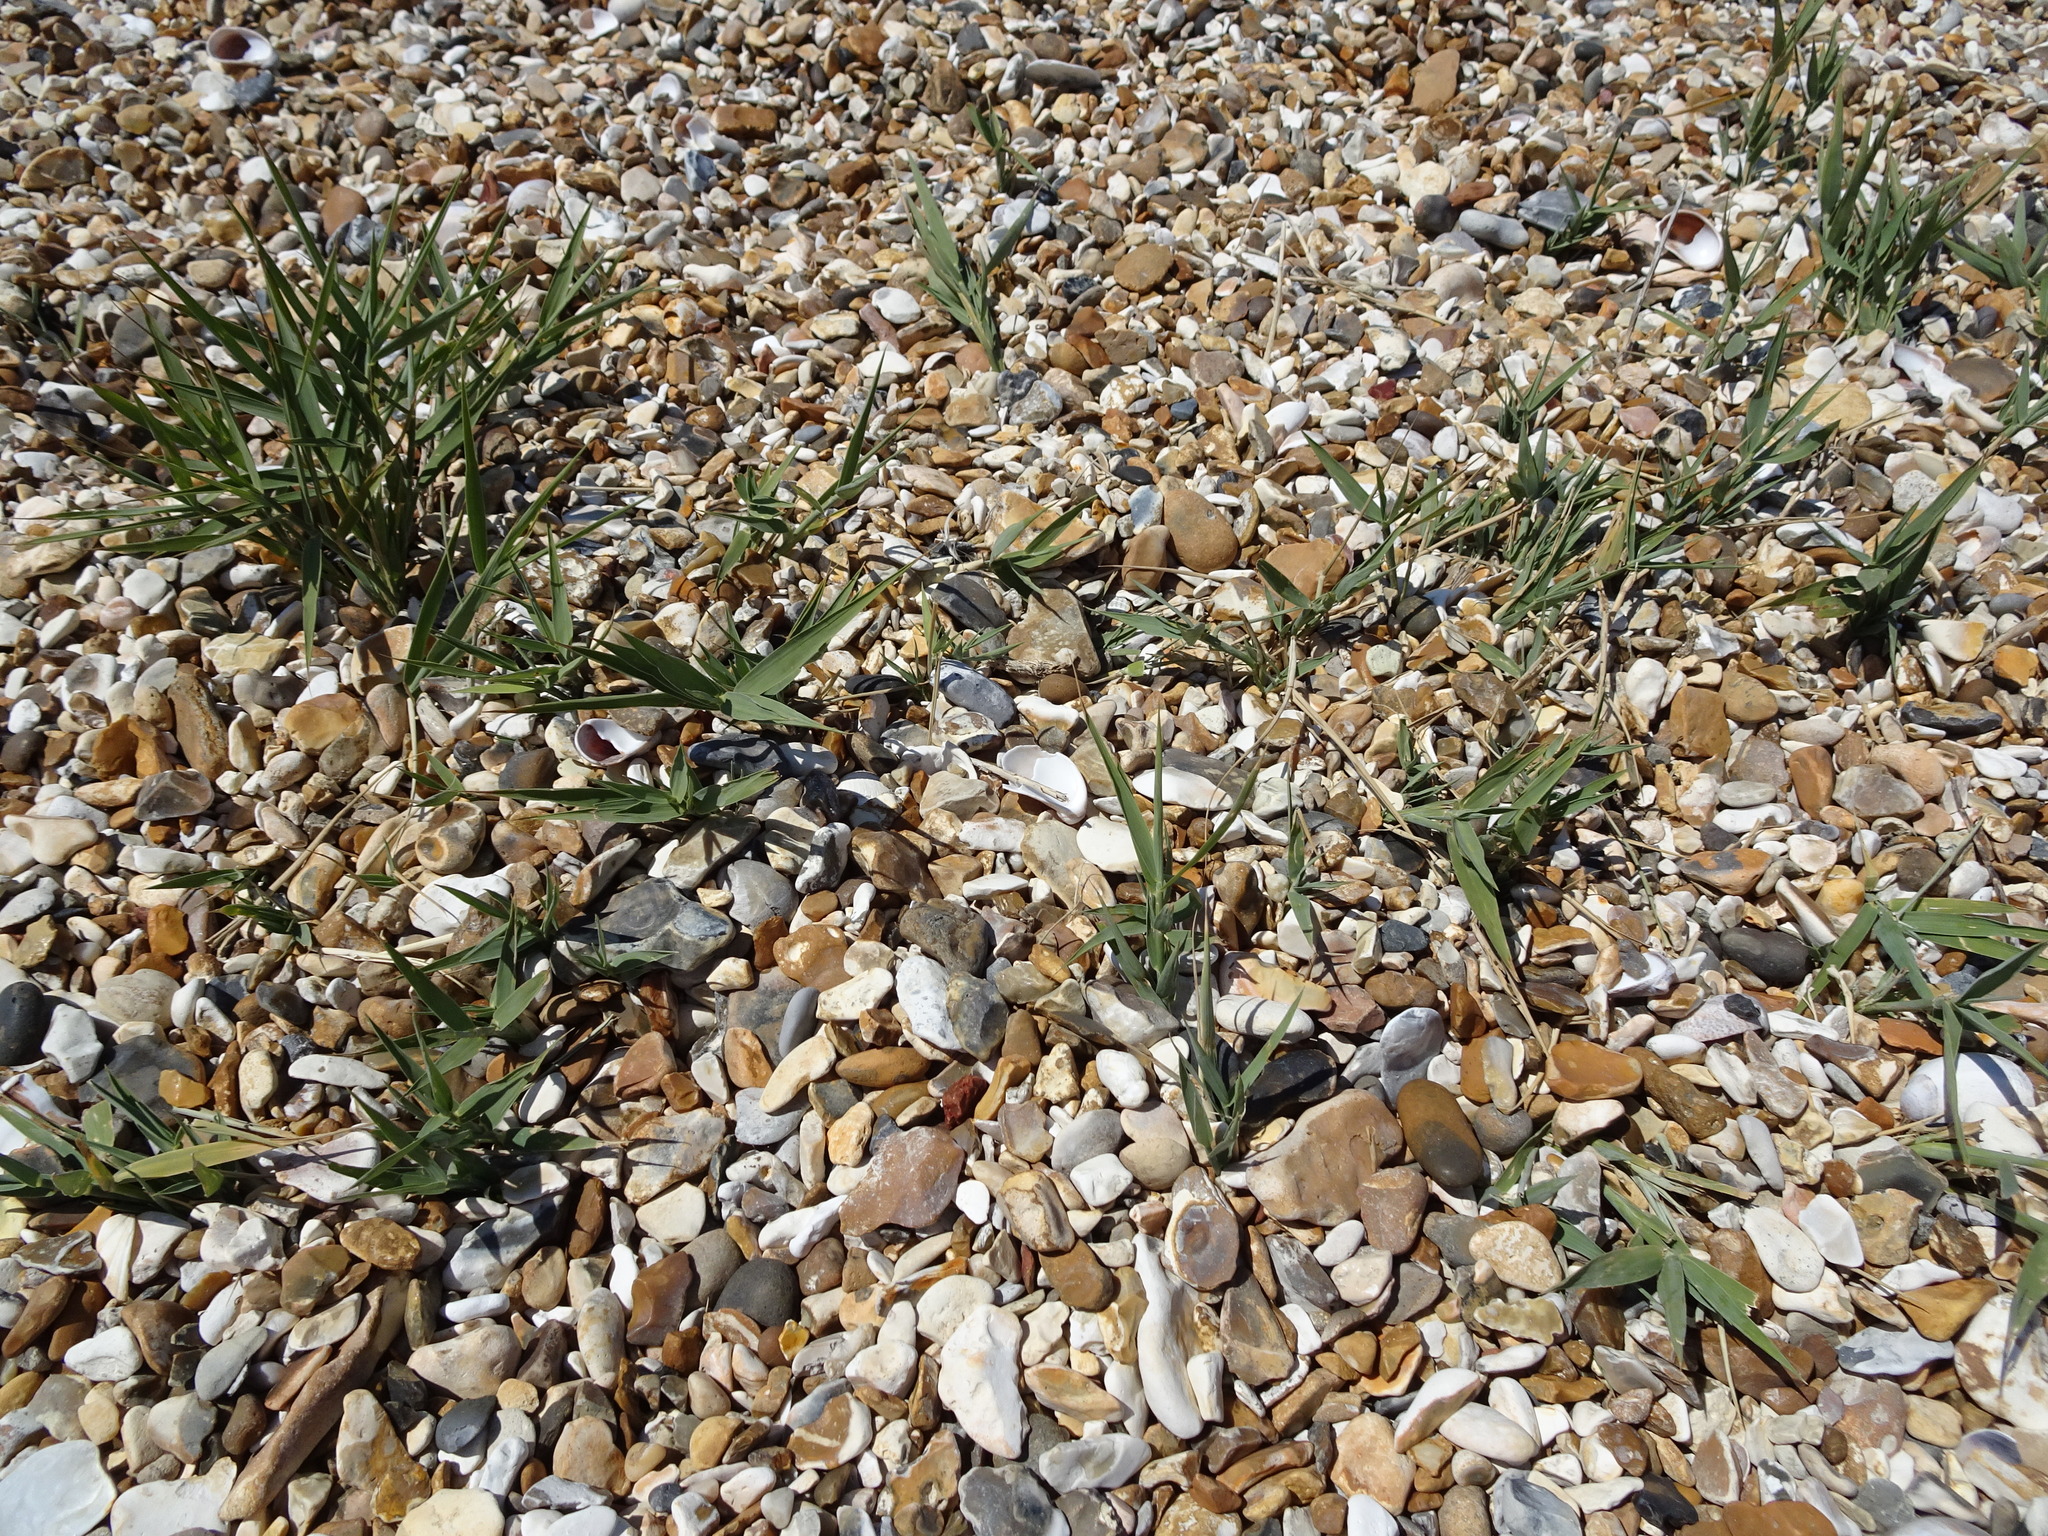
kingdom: Plantae
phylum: Tracheophyta
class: Liliopsida
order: Poales
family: Poaceae
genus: Phragmites
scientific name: Phragmites australis
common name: Common reed
